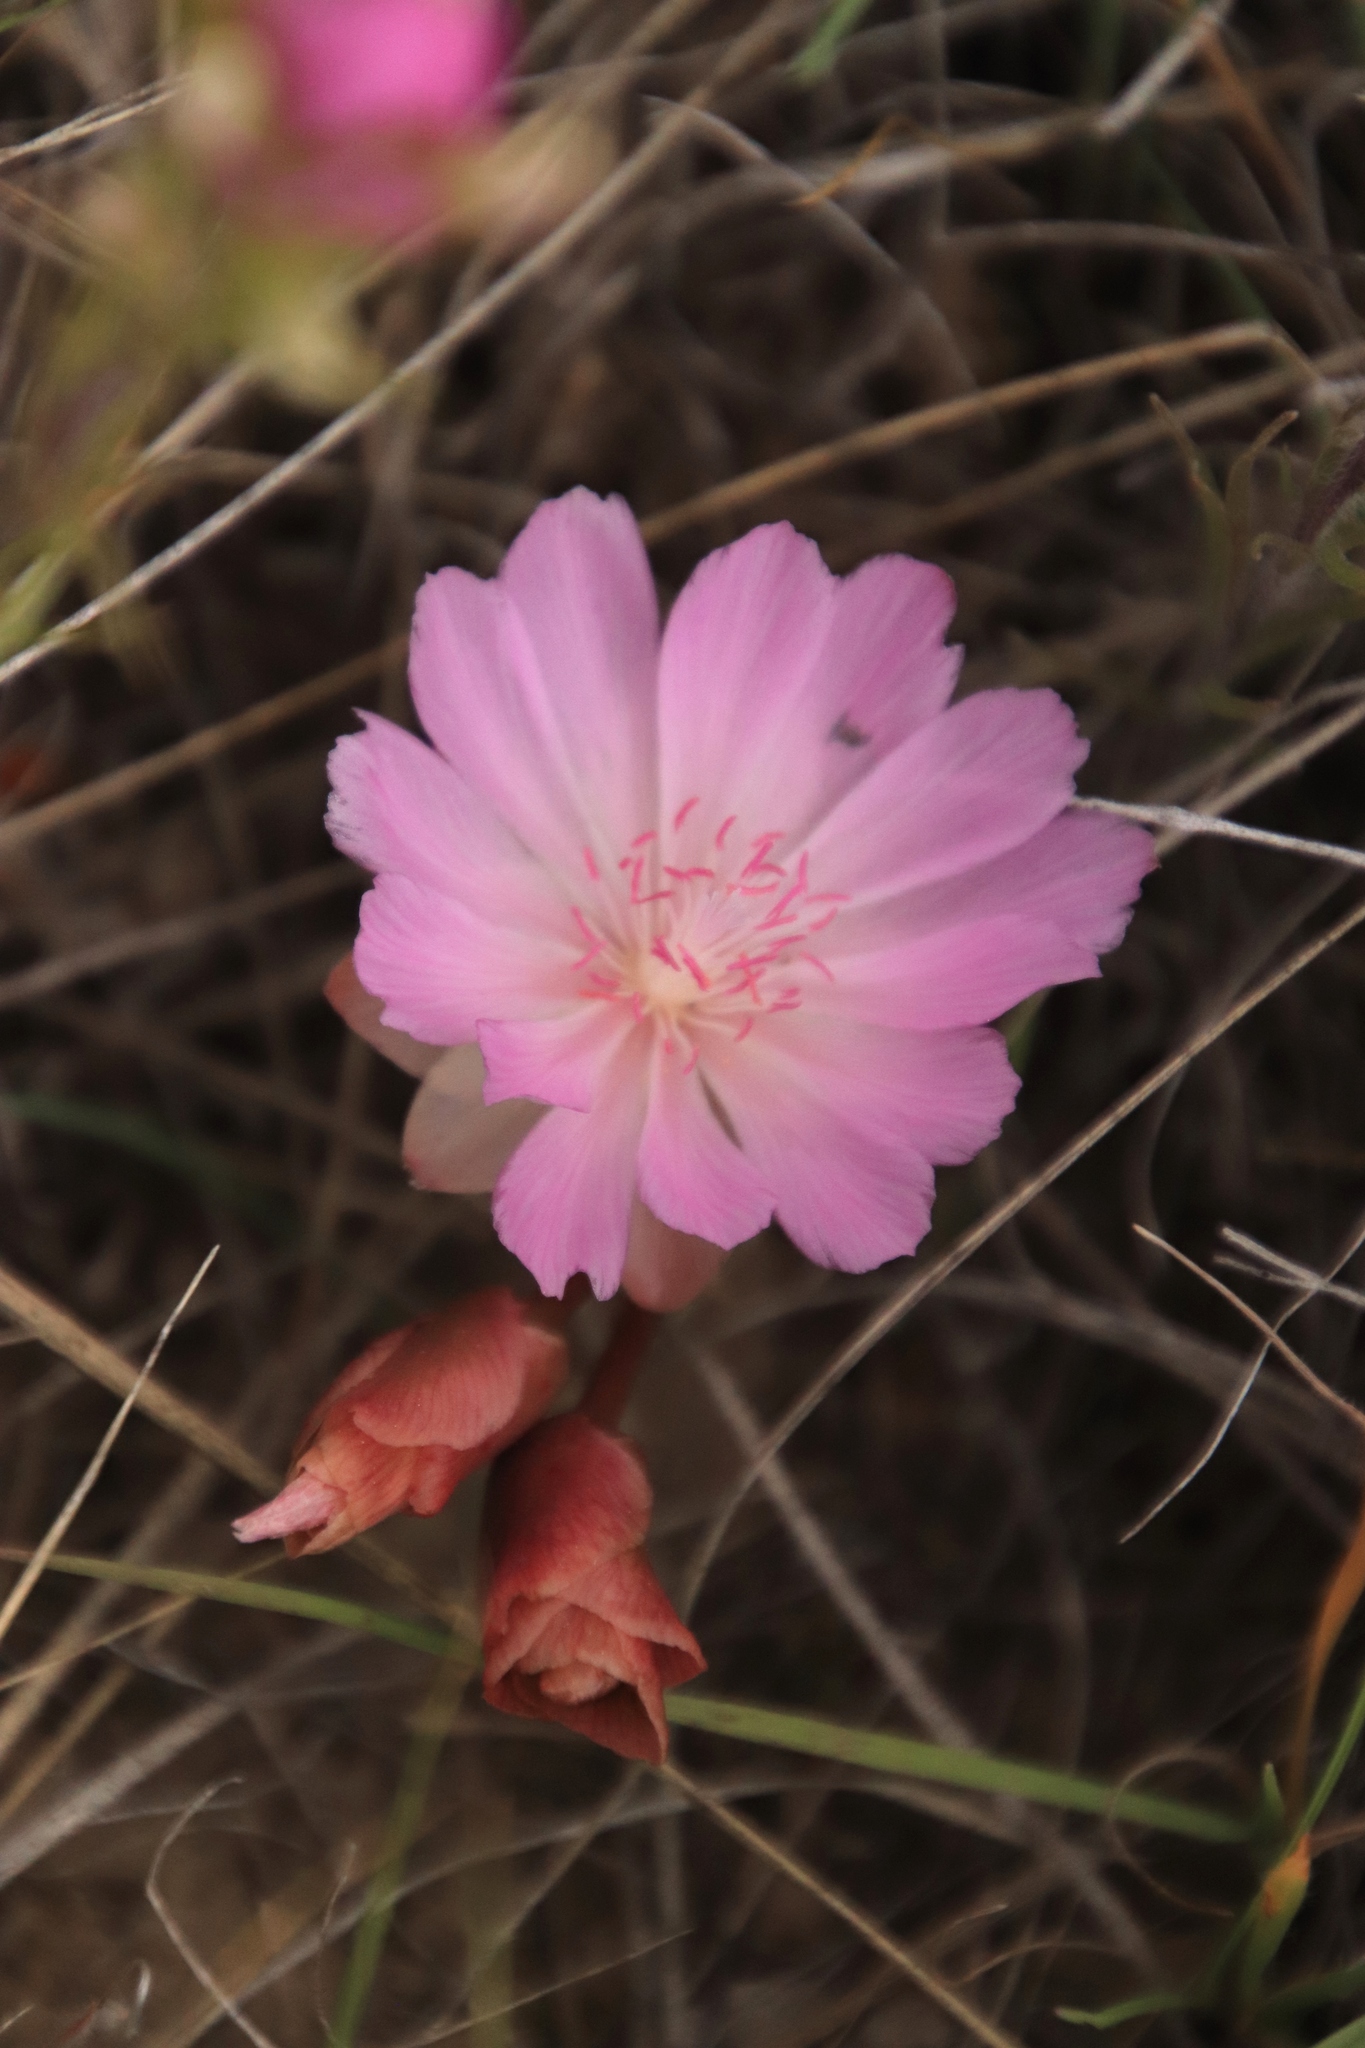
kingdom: Plantae
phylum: Tracheophyta
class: Magnoliopsida
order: Caryophyllales
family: Montiaceae
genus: Lewisia
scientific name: Lewisia rediviva
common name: Bitter-root
